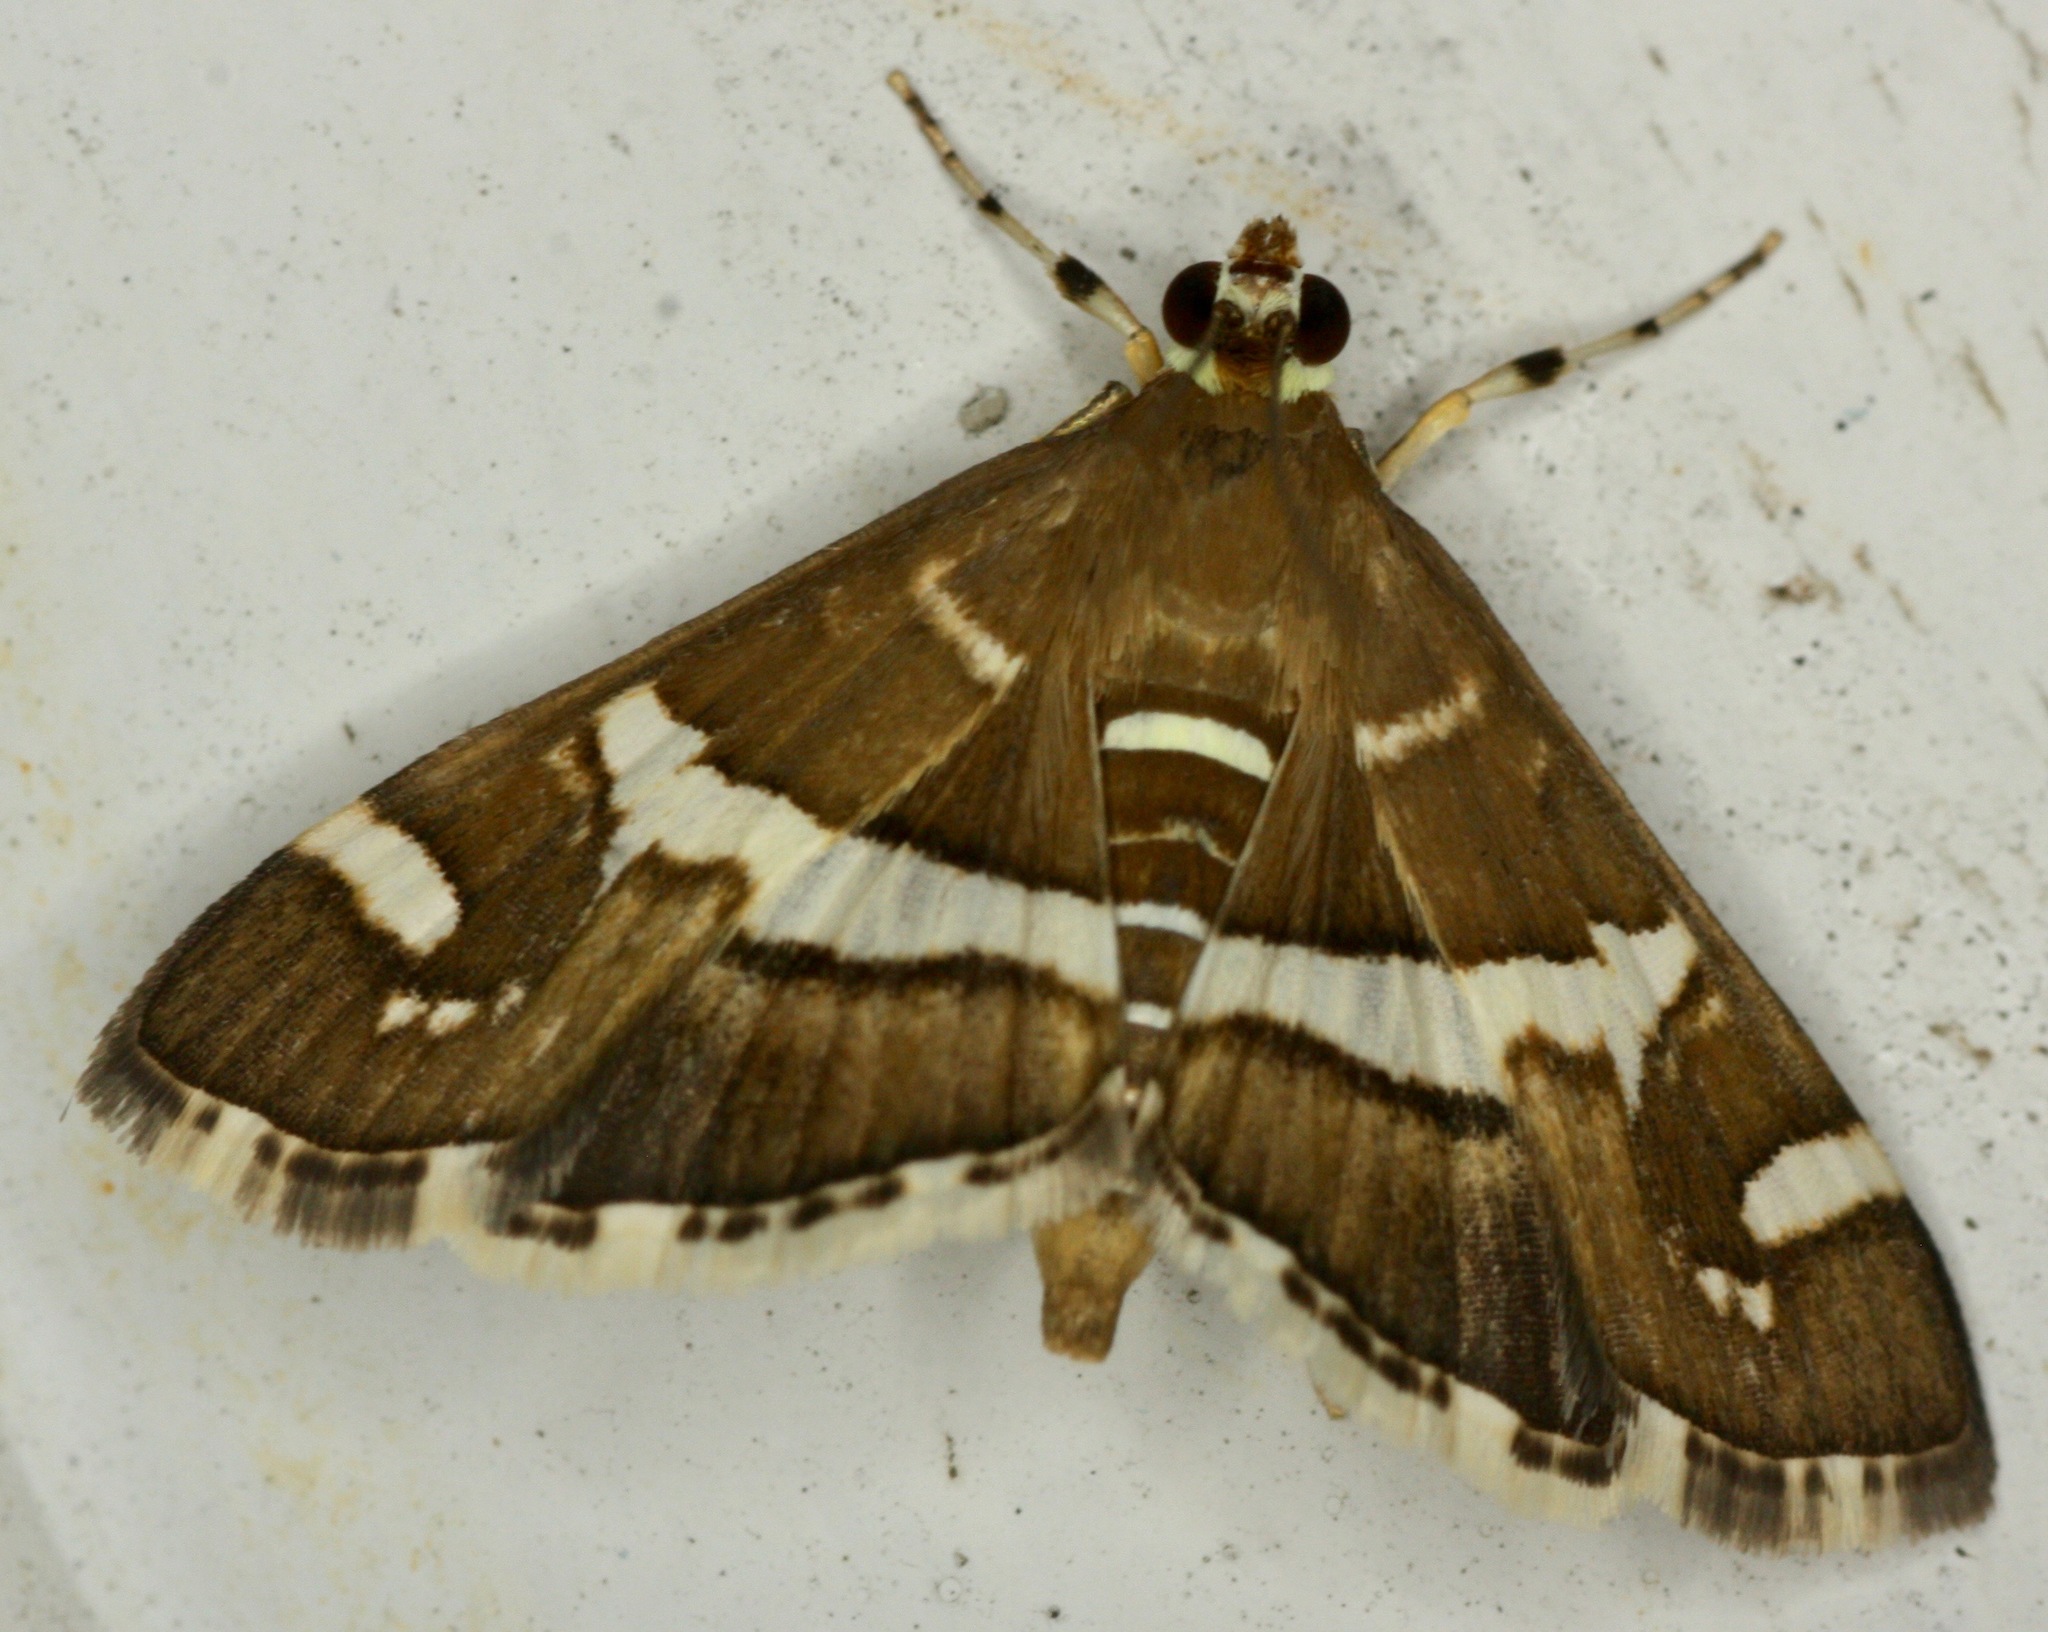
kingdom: Animalia
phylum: Arthropoda
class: Insecta
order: Lepidoptera
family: Crambidae
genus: Spoladea
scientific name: Spoladea recurvalis
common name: Beet webworm moth
